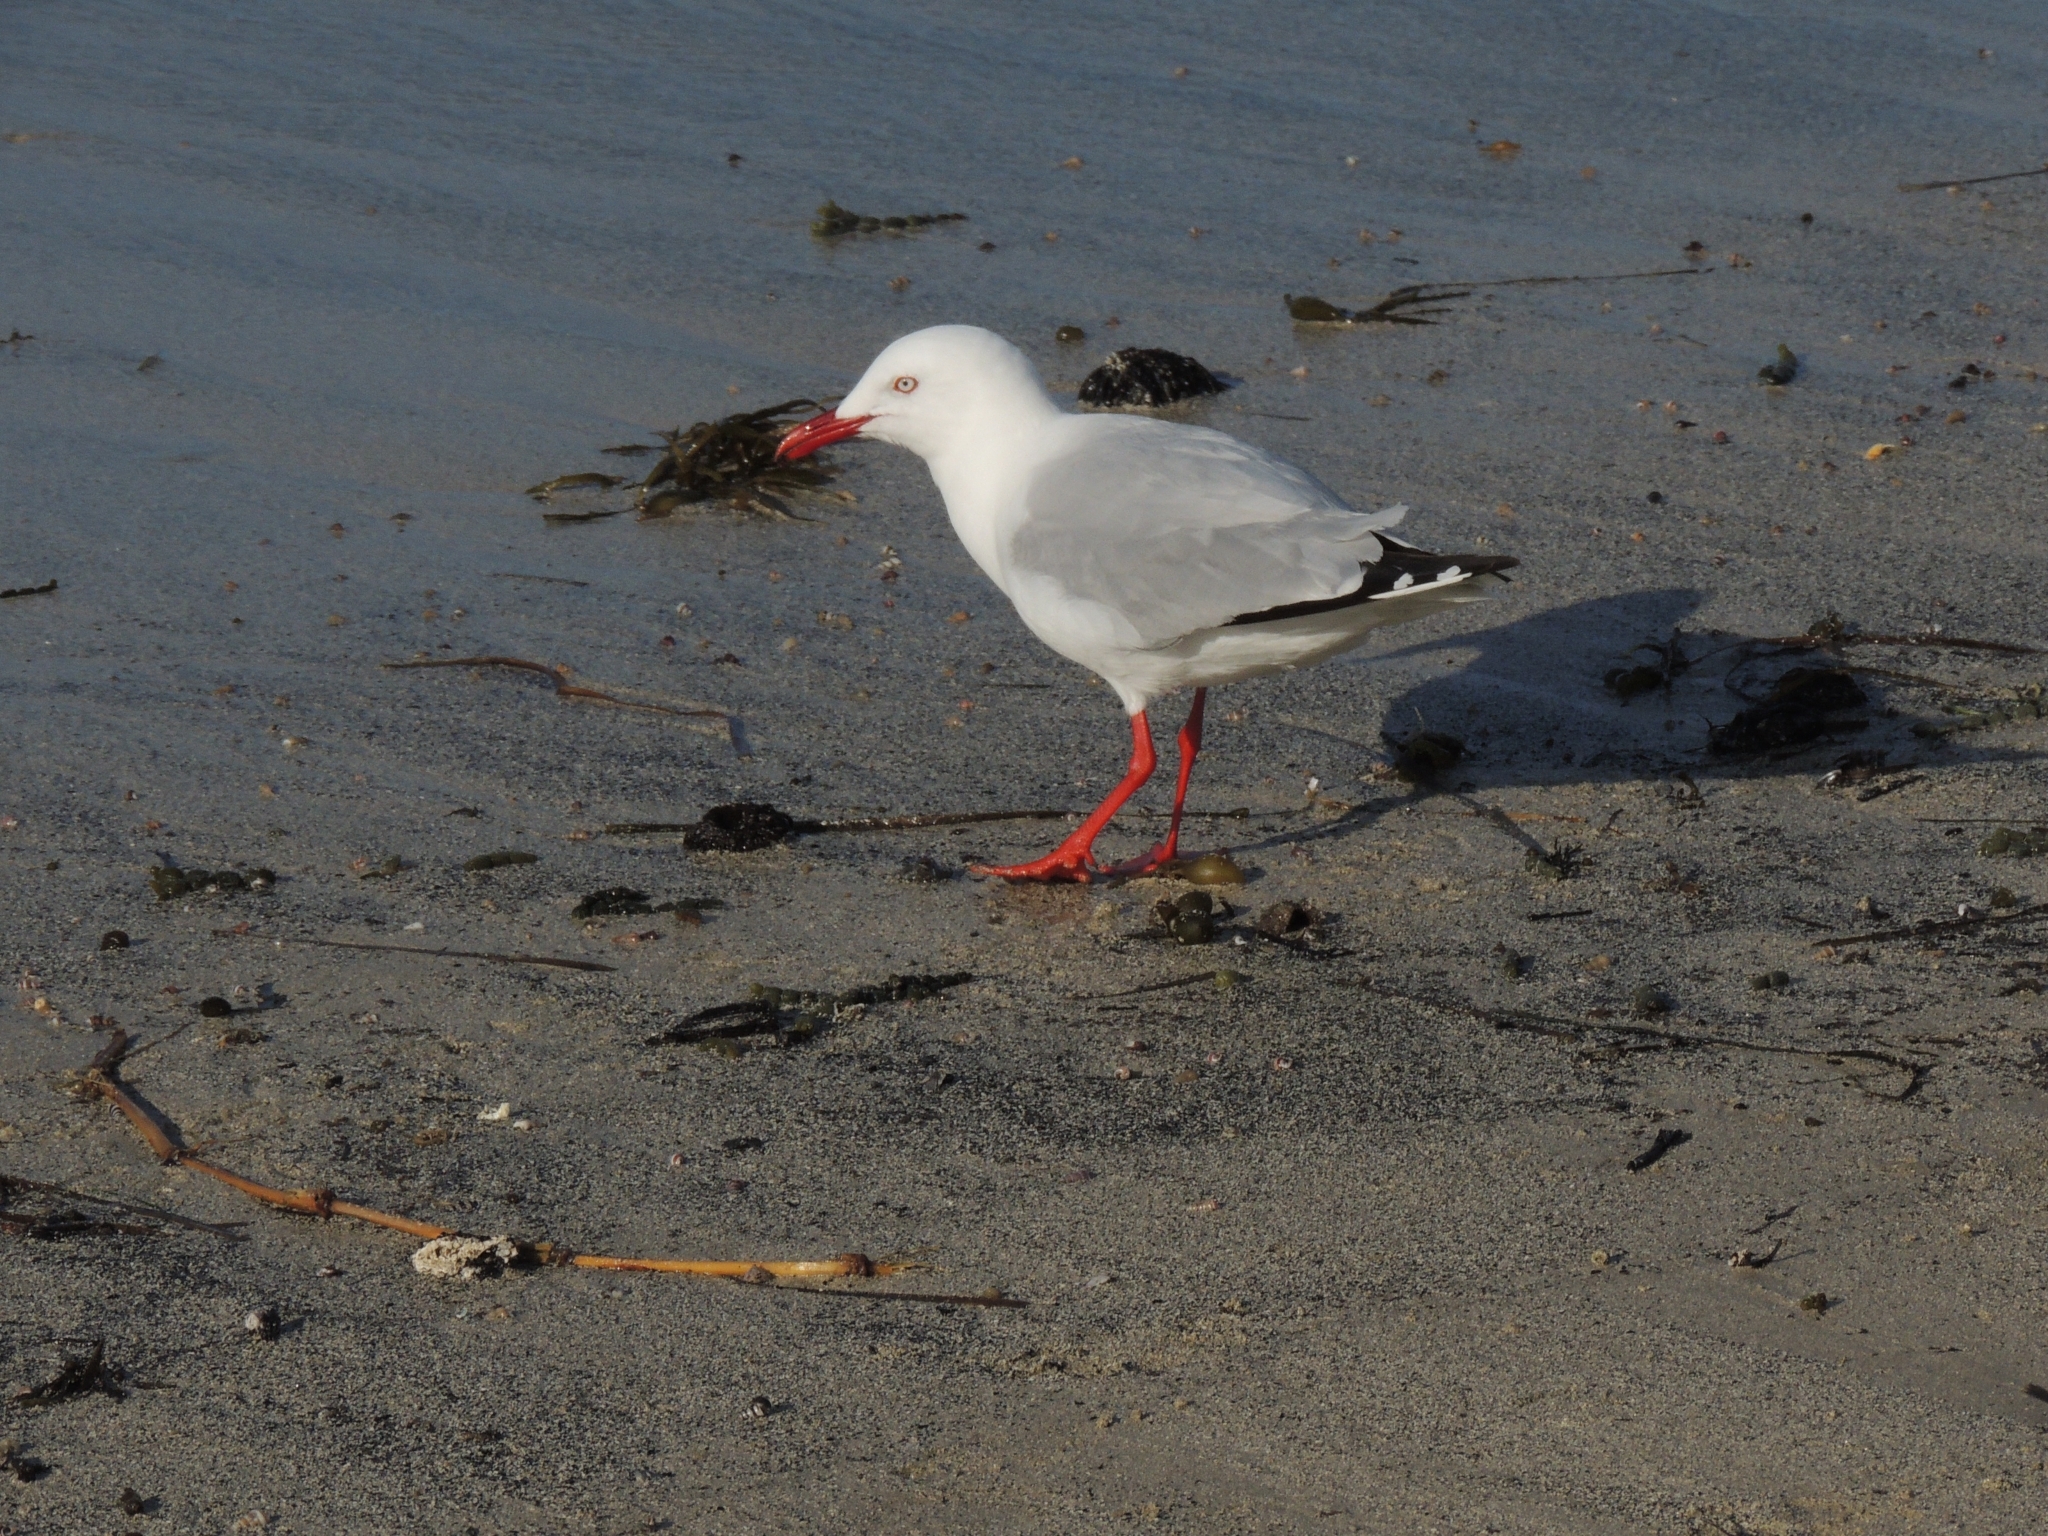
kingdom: Animalia
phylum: Chordata
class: Aves
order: Charadriiformes
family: Laridae
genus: Chroicocephalus
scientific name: Chroicocephalus novaehollandiae
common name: Silver gull
